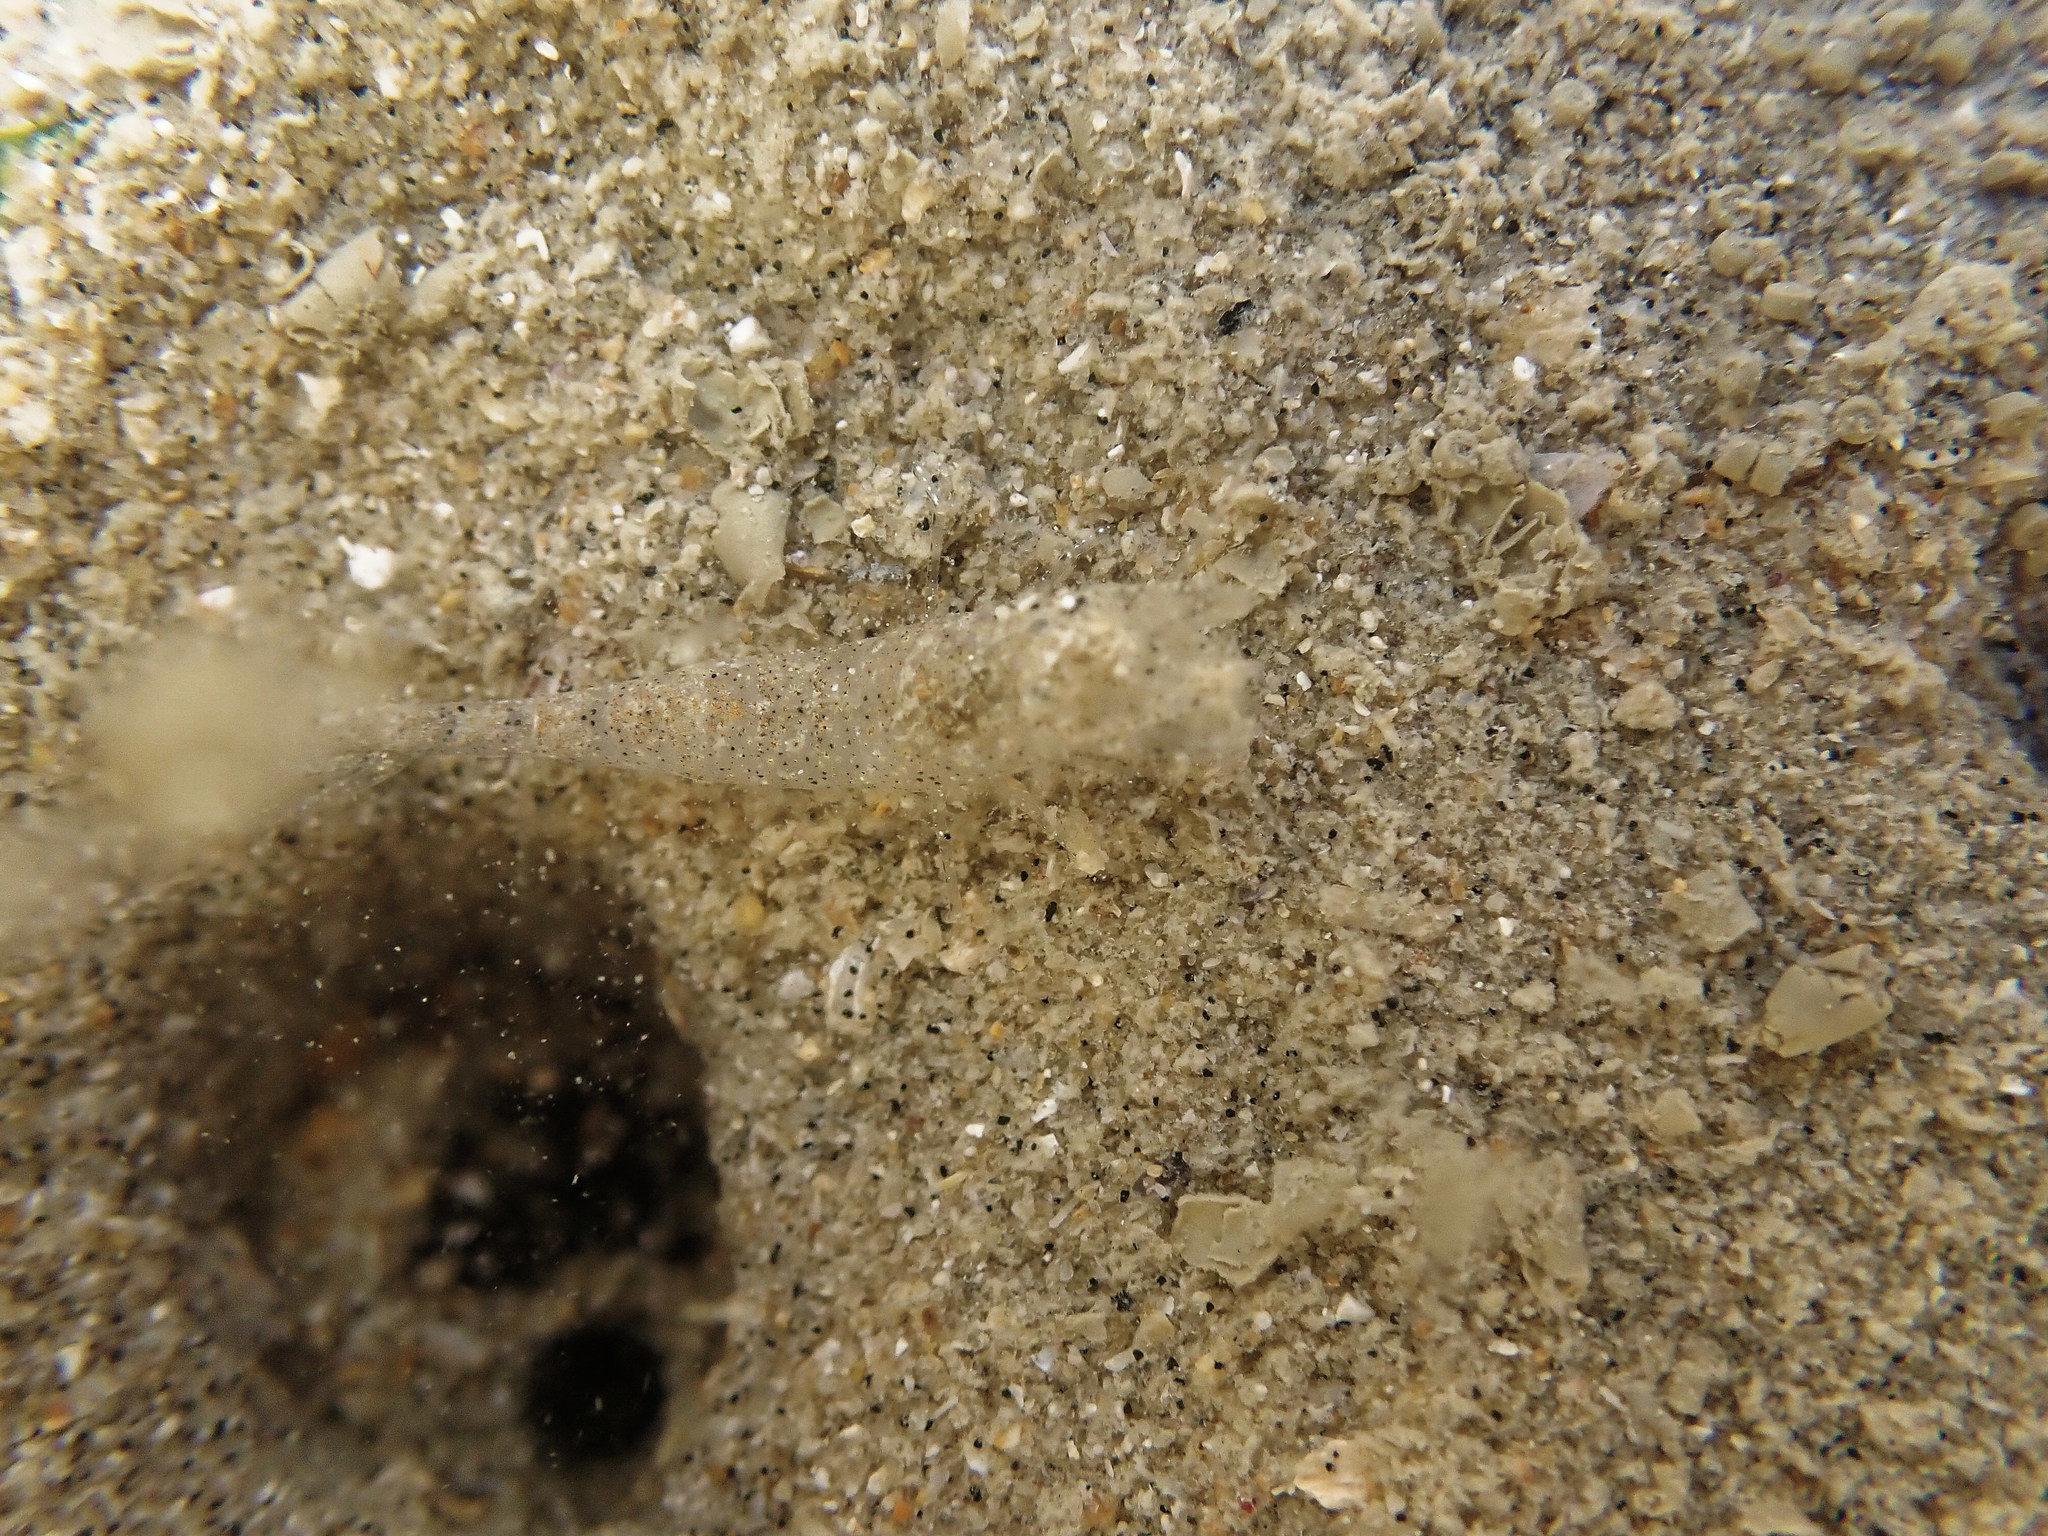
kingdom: Animalia
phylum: Arthropoda
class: Malacostraca
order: Decapoda
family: Crangonidae
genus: Crangon
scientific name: Crangon crangon
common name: Brown shrimp
